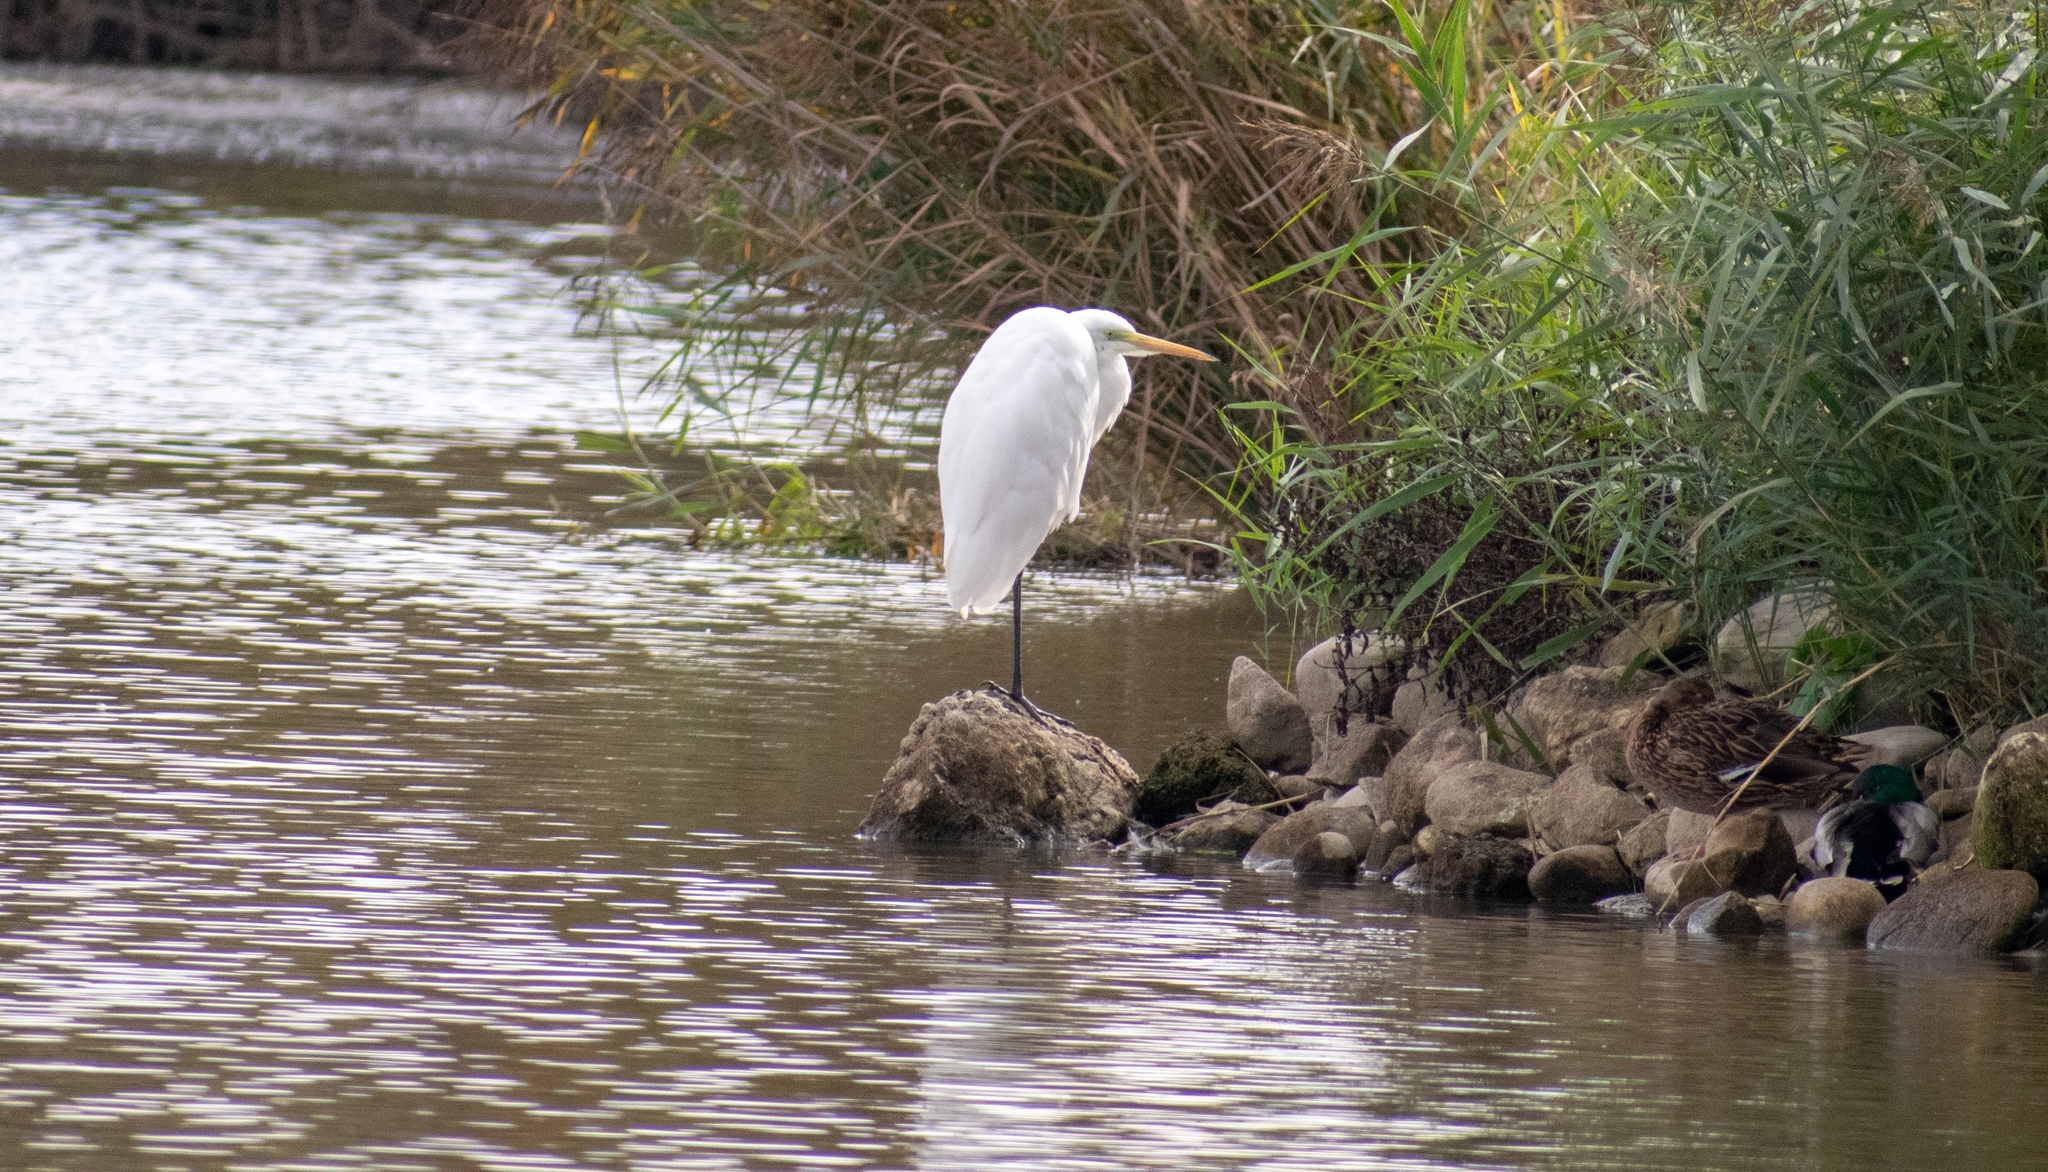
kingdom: Animalia
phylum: Chordata
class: Aves
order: Pelecaniformes
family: Ardeidae
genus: Ardea
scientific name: Ardea alba
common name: Great egret
